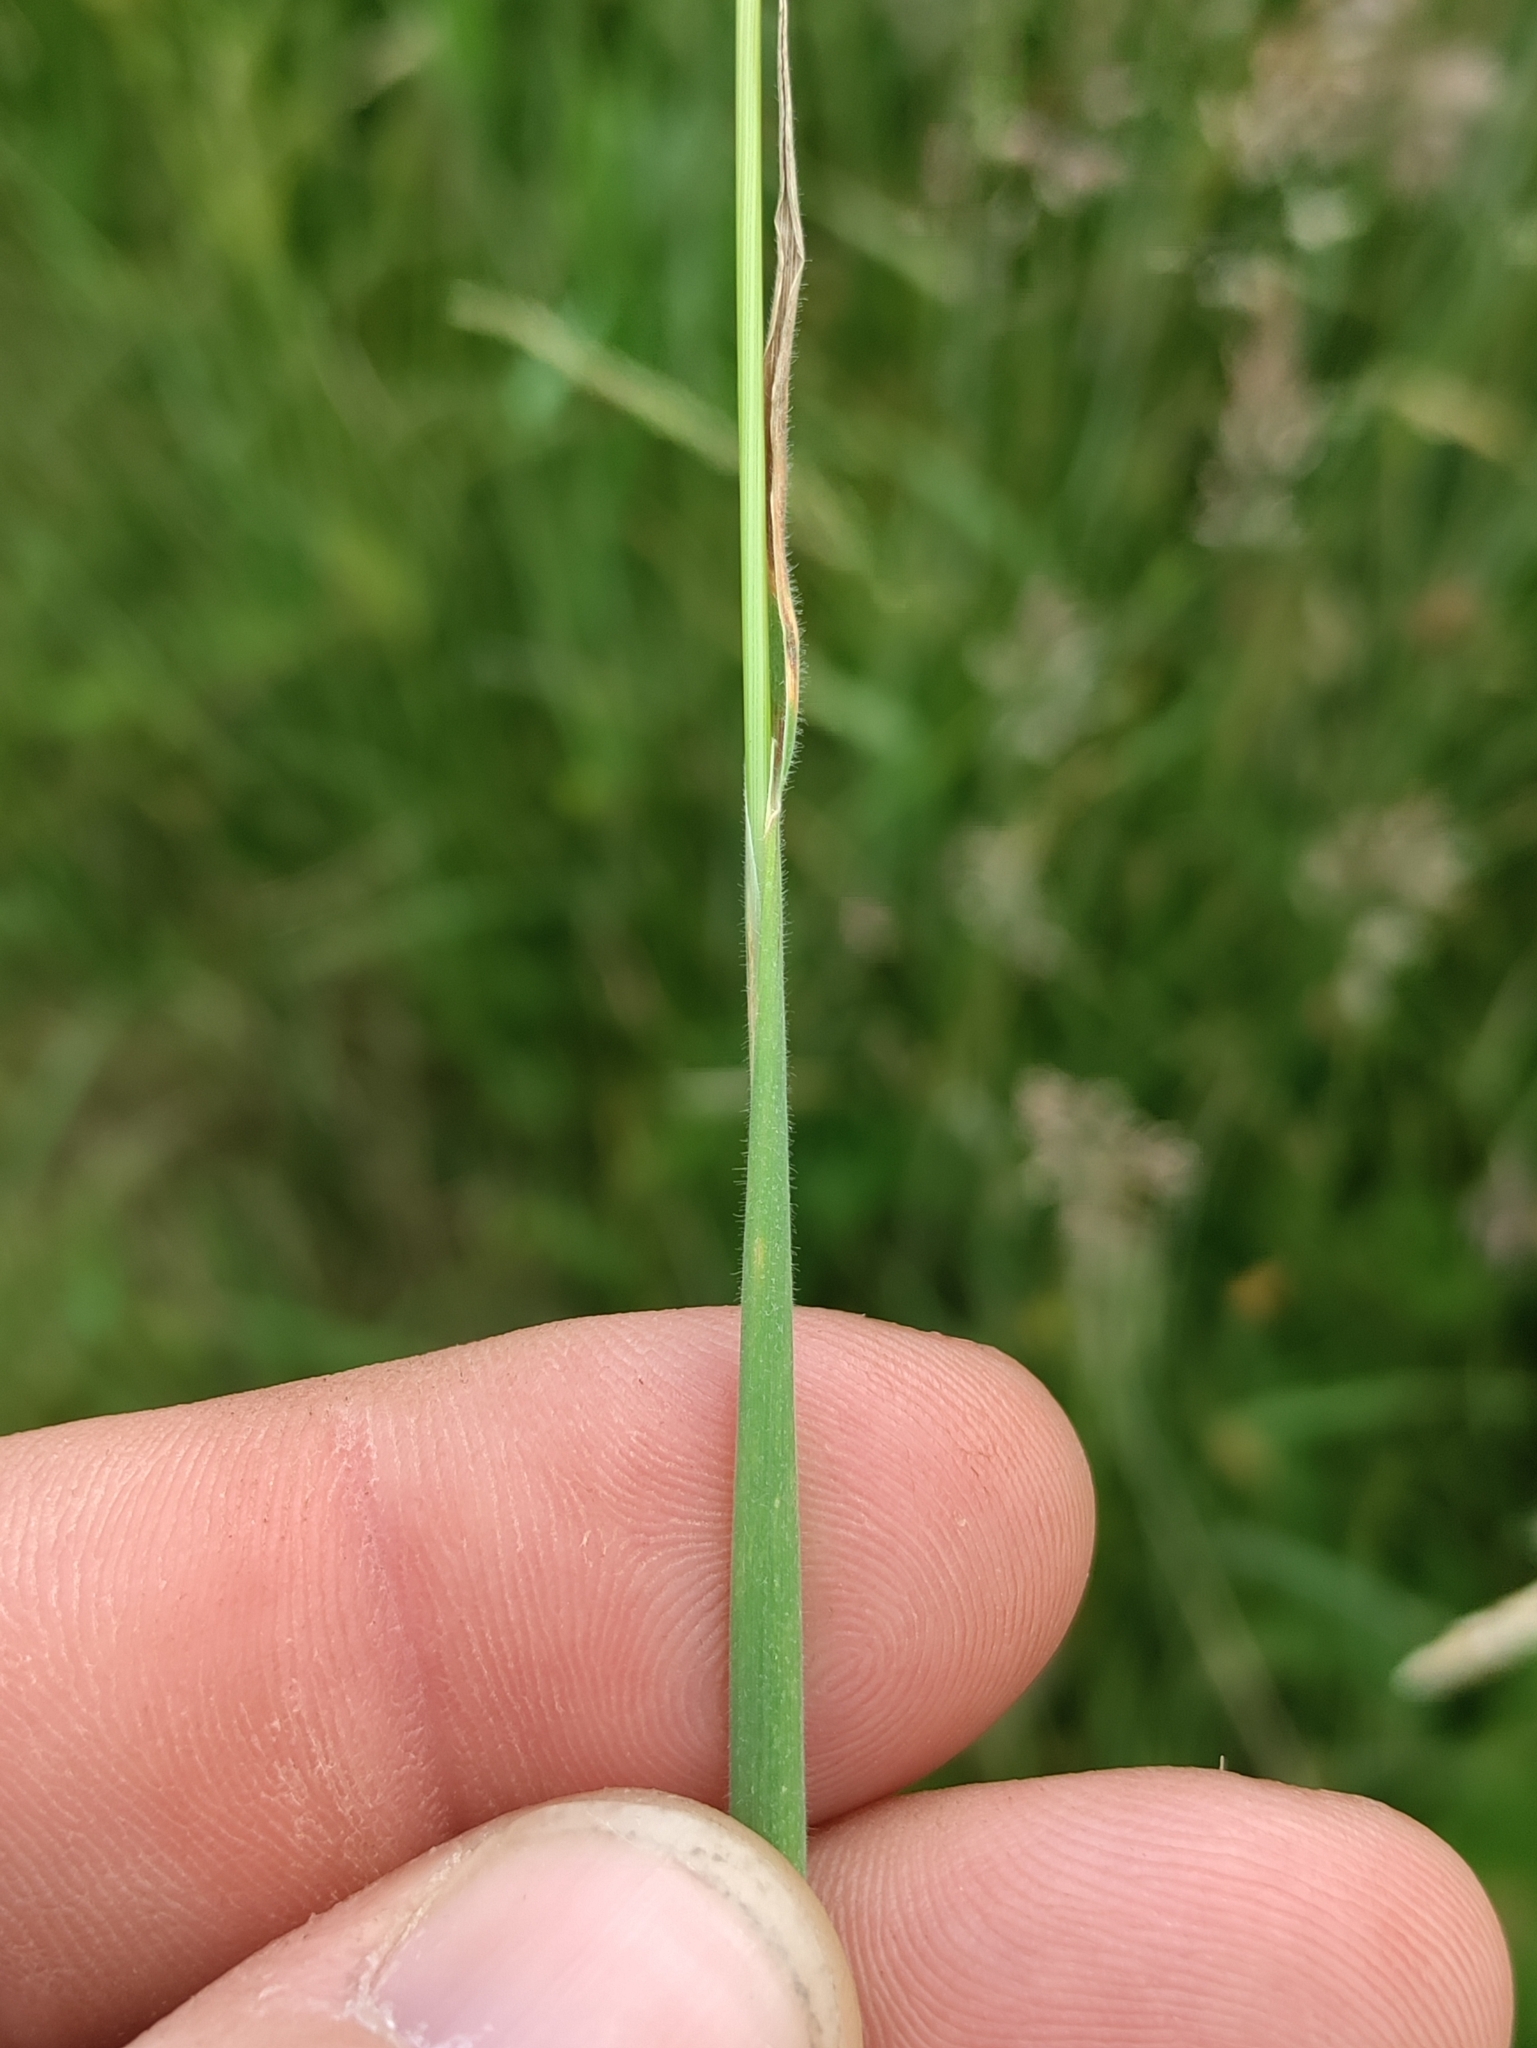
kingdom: Plantae
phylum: Tracheophyta
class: Liliopsida
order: Poales
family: Poaceae
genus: Holcus
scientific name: Holcus lanatus
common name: Yorkshire-fog
